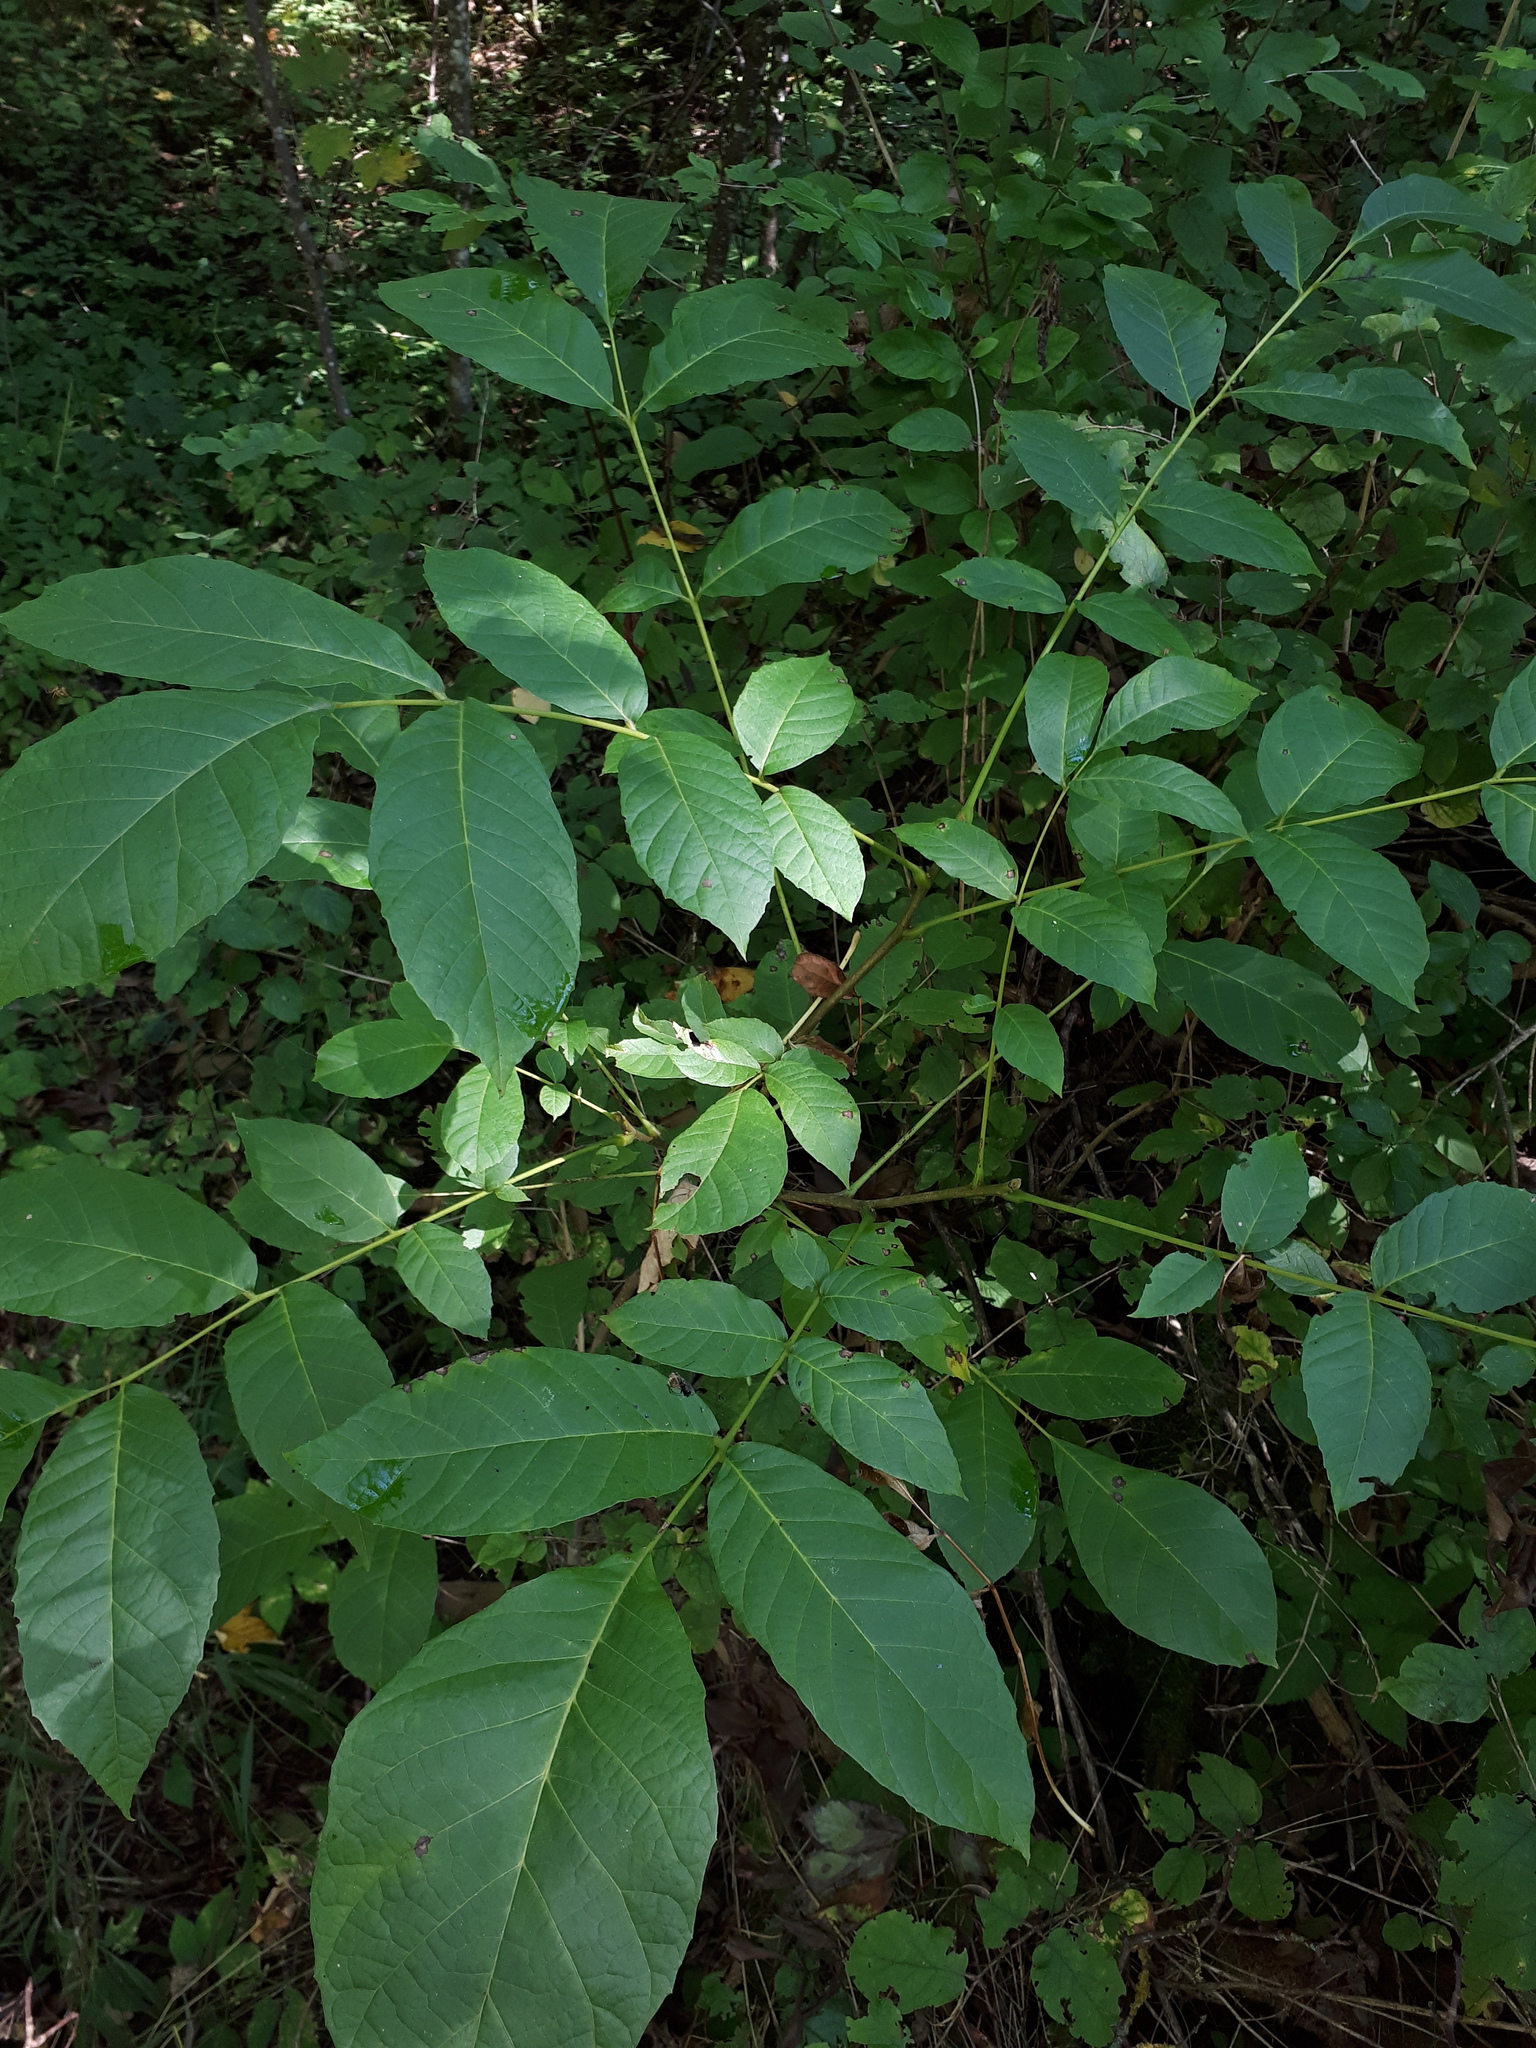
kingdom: Plantae
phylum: Tracheophyta
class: Magnoliopsida
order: Fagales
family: Juglandaceae
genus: Juglans
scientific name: Juglans regia
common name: Walnut
